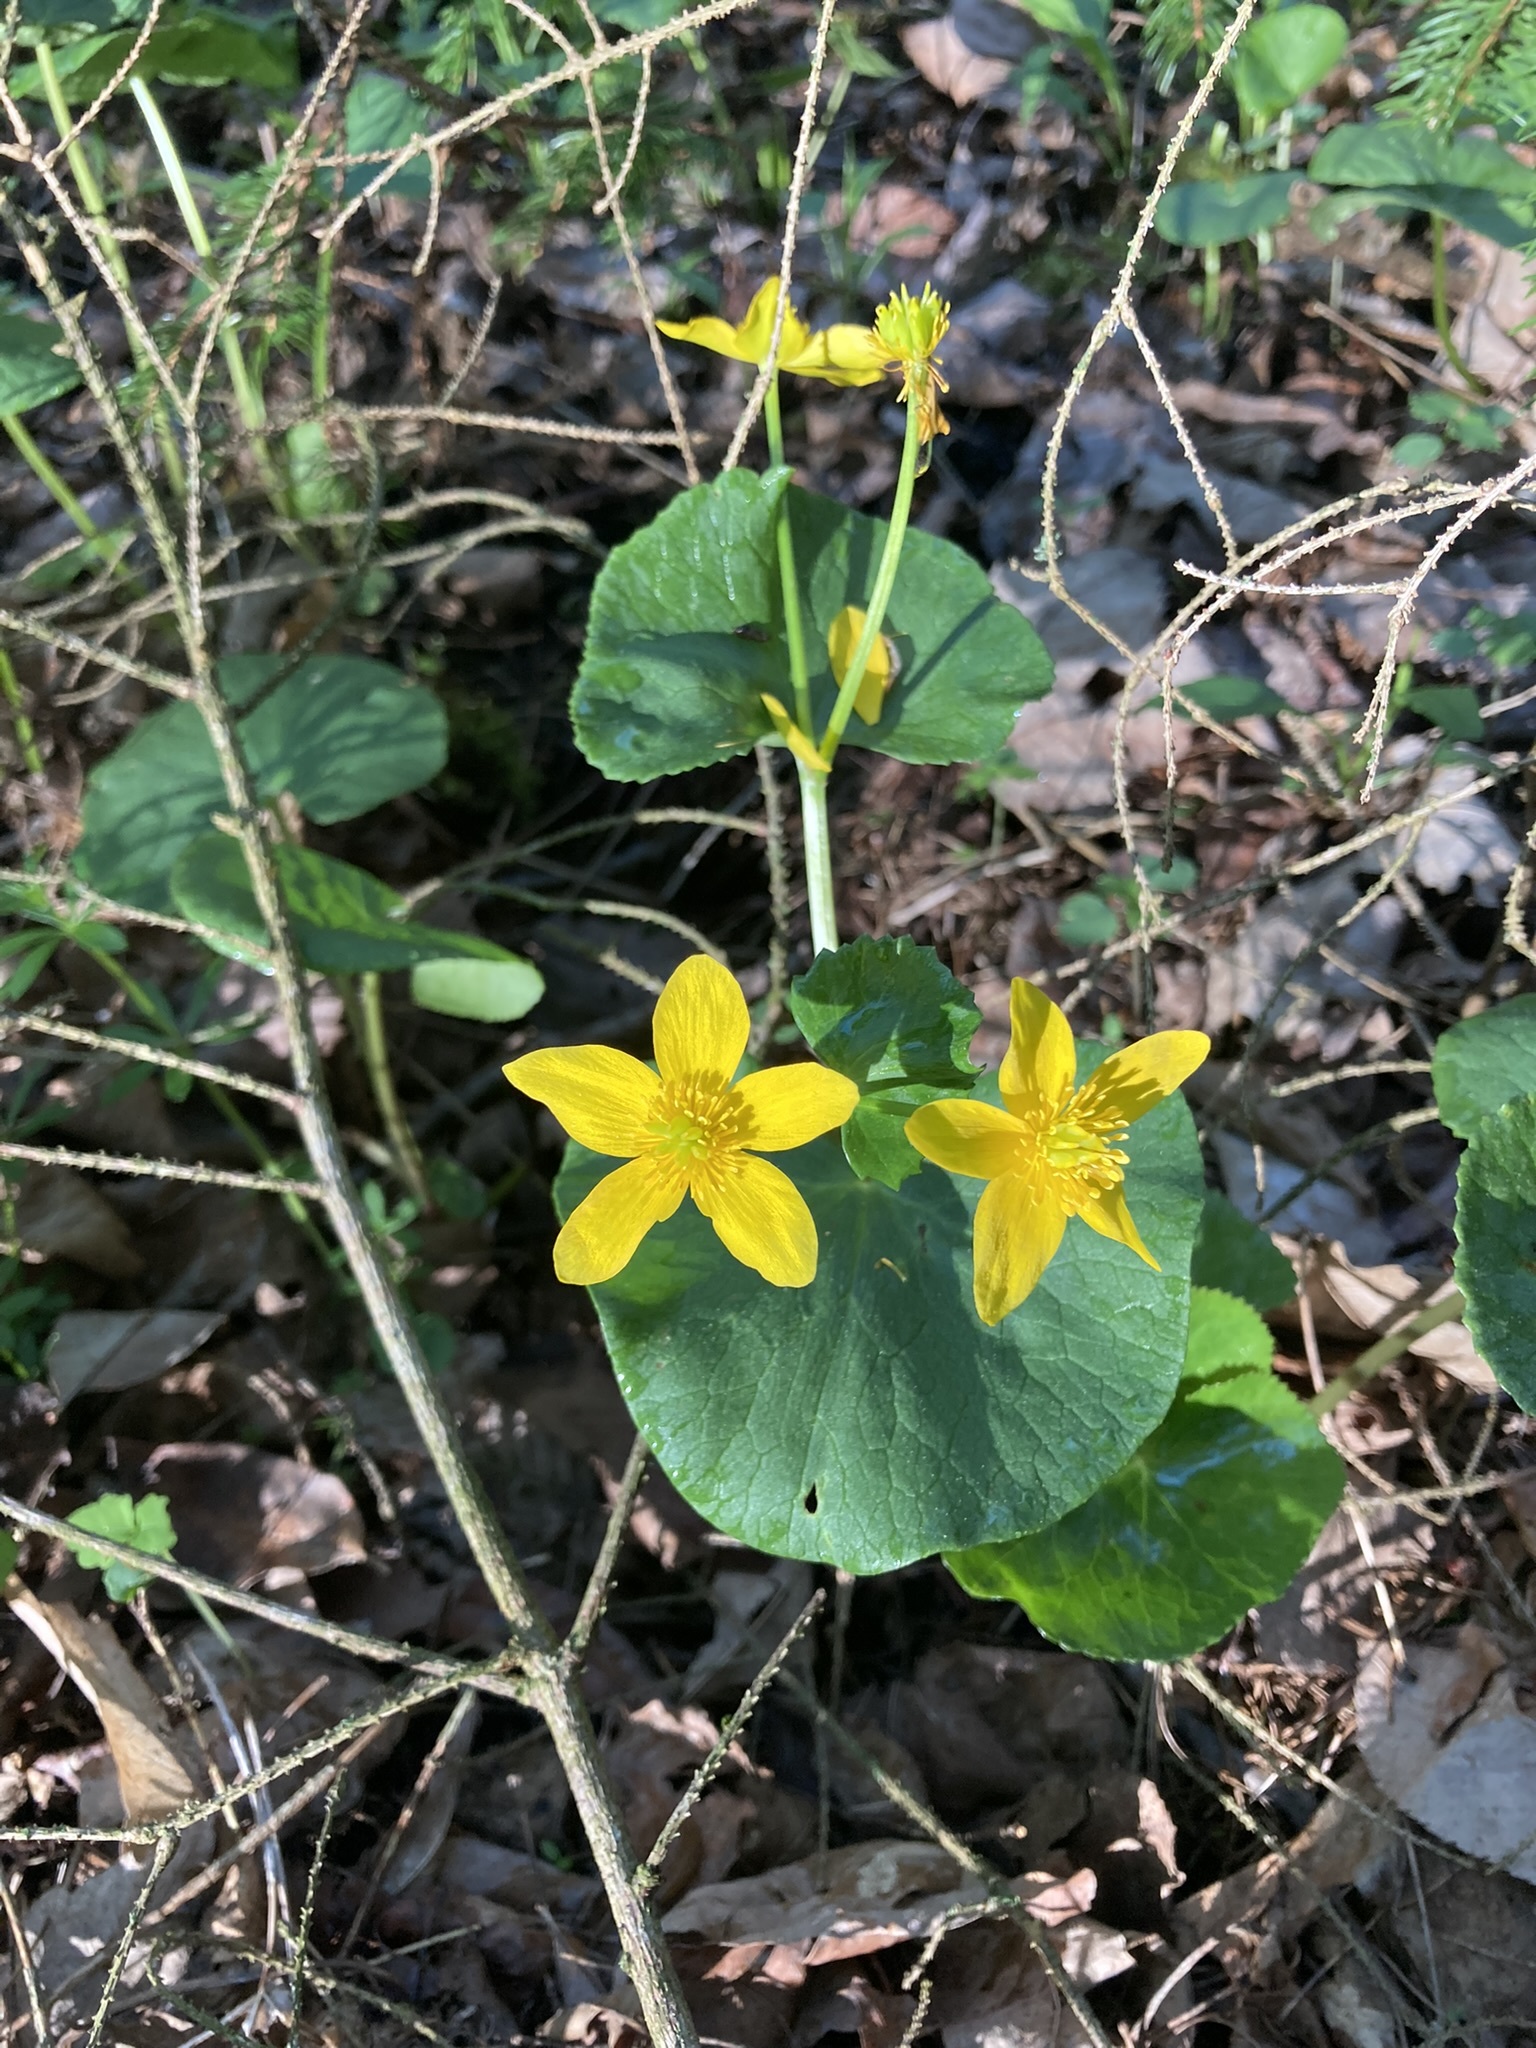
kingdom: Plantae
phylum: Tracheophyta
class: Magnoliopsida
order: Ranunculales
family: Ranunculaceae
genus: Caltha
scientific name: Caltha palustris
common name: Marsh marigold
